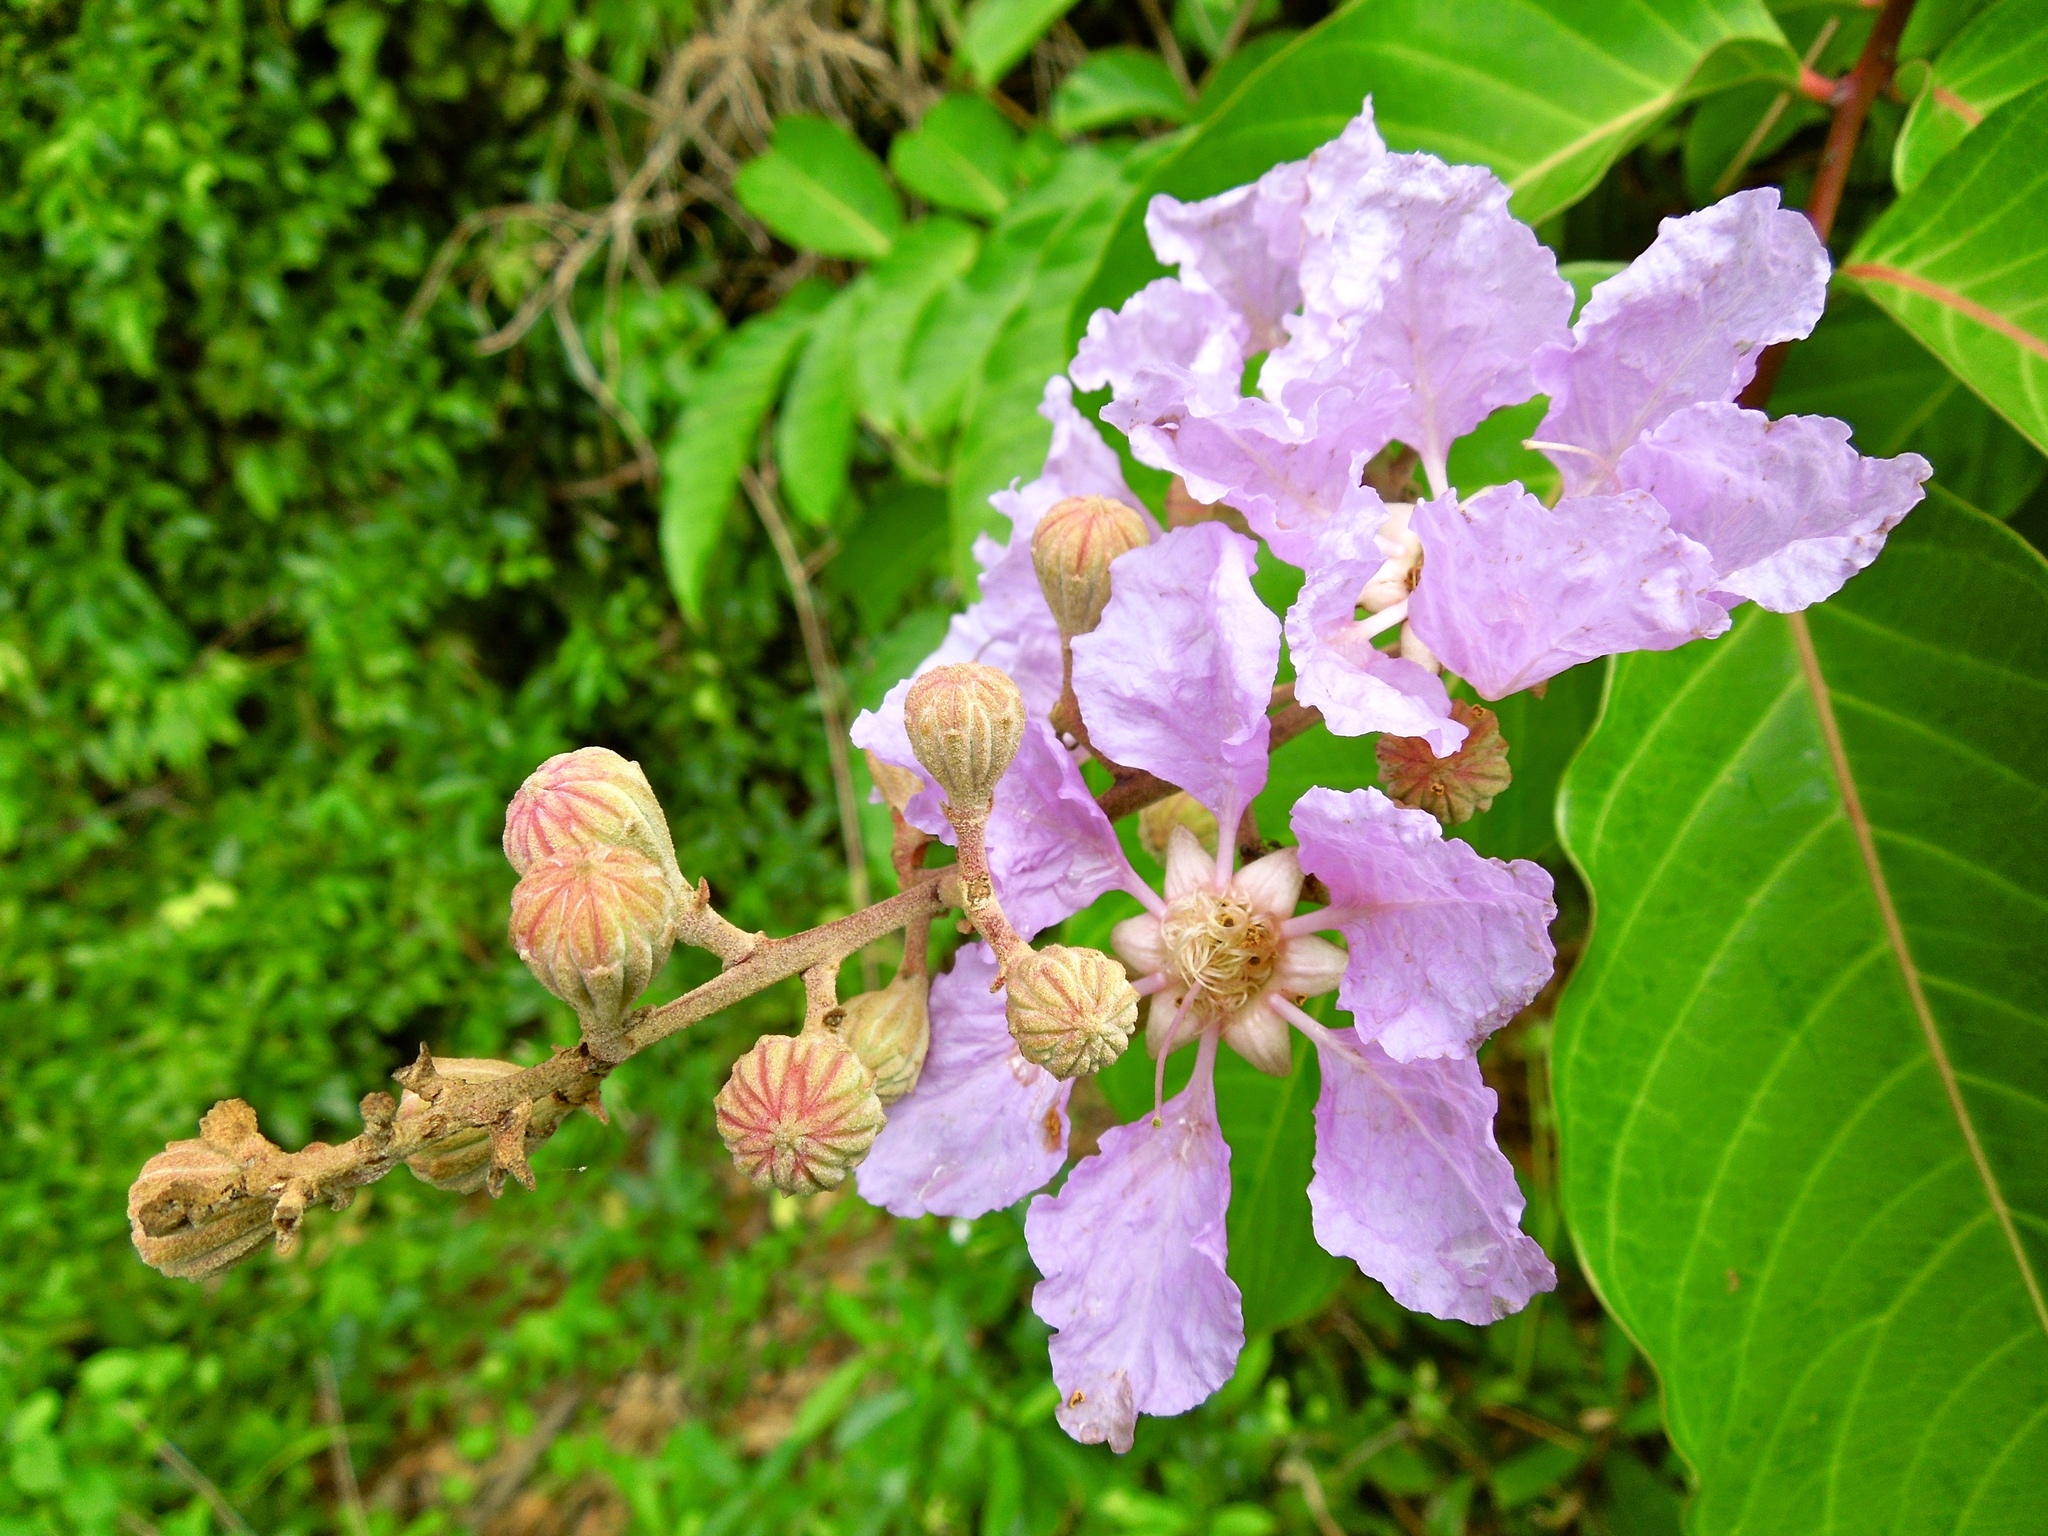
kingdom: Plantae
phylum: Tracheophyta
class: Magnoliopsida
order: Myrtales
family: Lythraceae
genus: Lagerstroemia
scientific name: Lagerstroemia speciosa
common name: Queen's crape-myrtle
